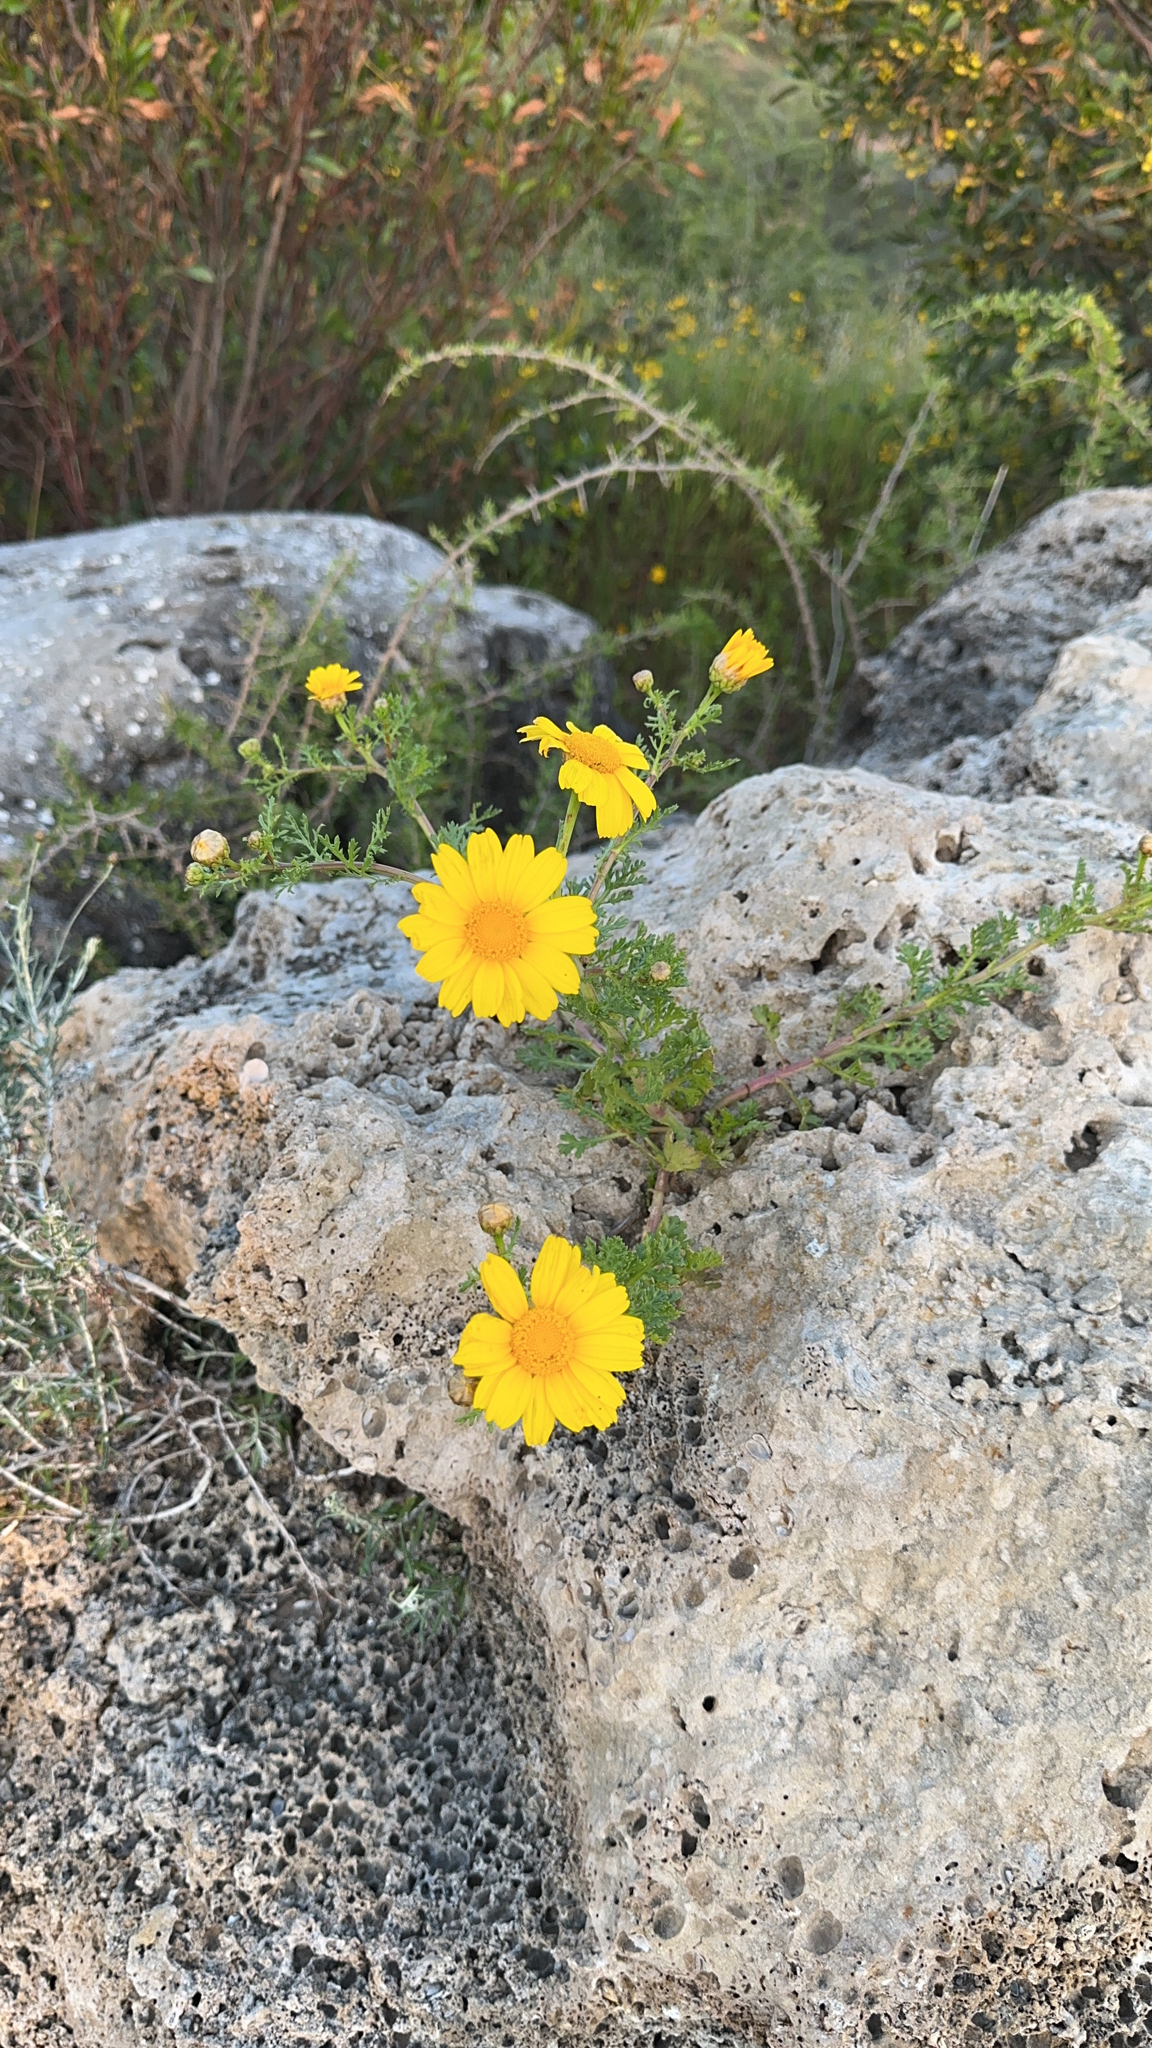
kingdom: Plantae
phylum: Tracheophyta
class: Magnoliopsida
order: Asterales
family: Asteraceae
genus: Glebionis
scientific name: Glebionis coronaria
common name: Crowndaisy
